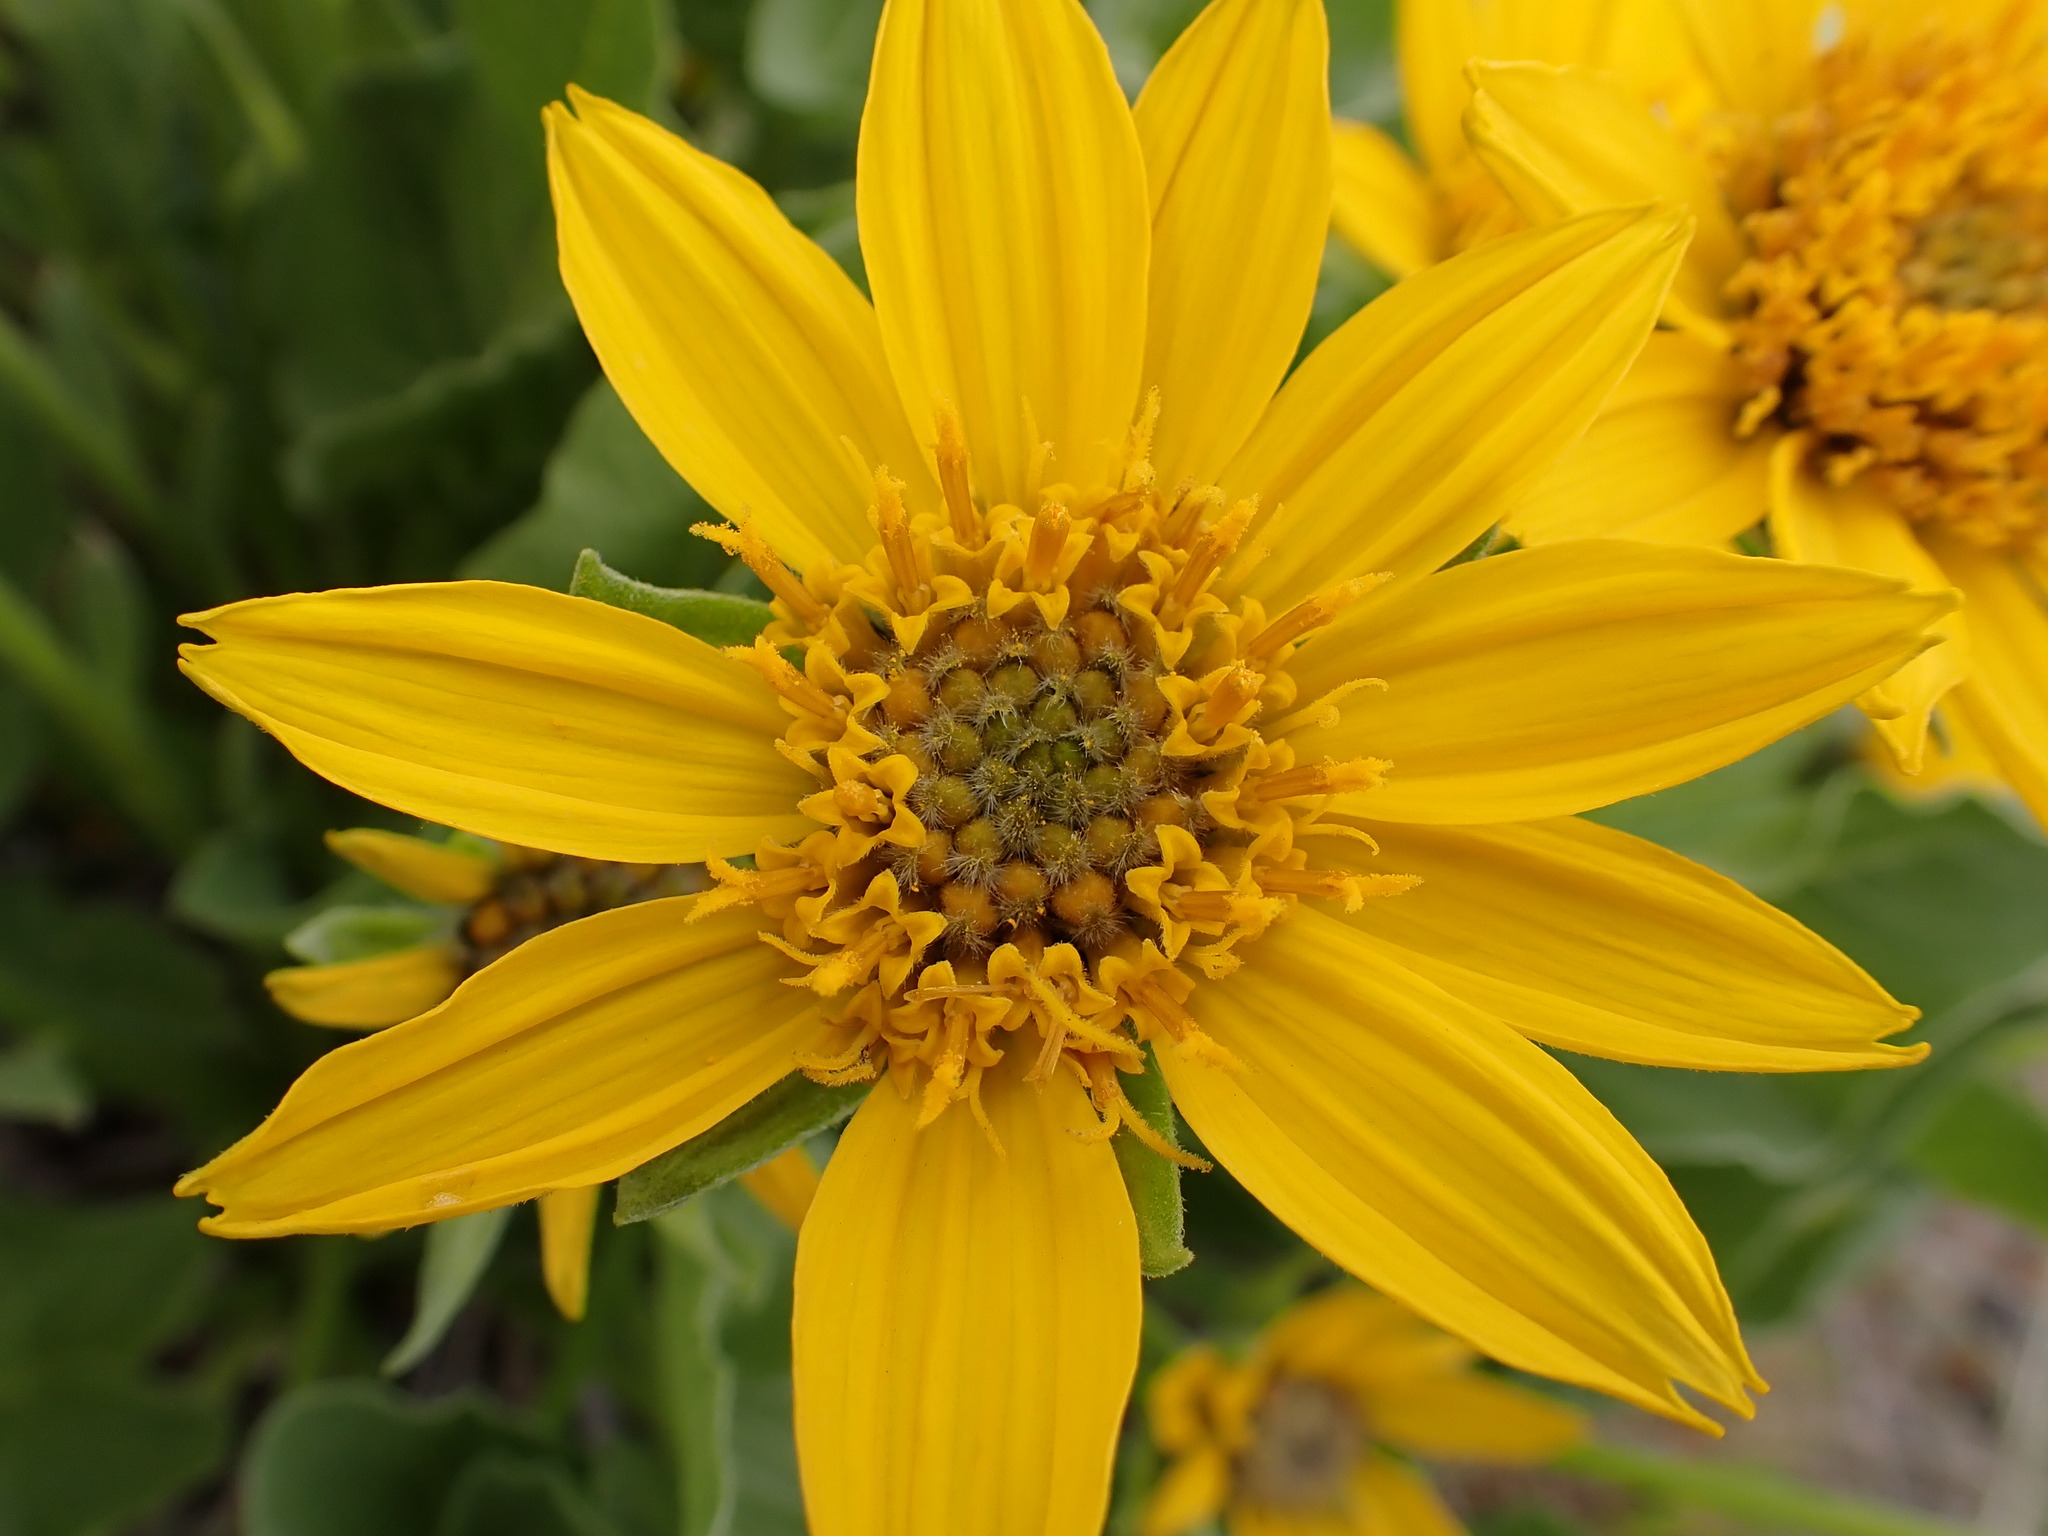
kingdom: Plantae
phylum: Tracheophyta
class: Magnoliopsida
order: Asterales
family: Asteraceae
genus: Balsamorhiza
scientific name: Balsamorhiza careyana
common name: Carey's balsamroot
